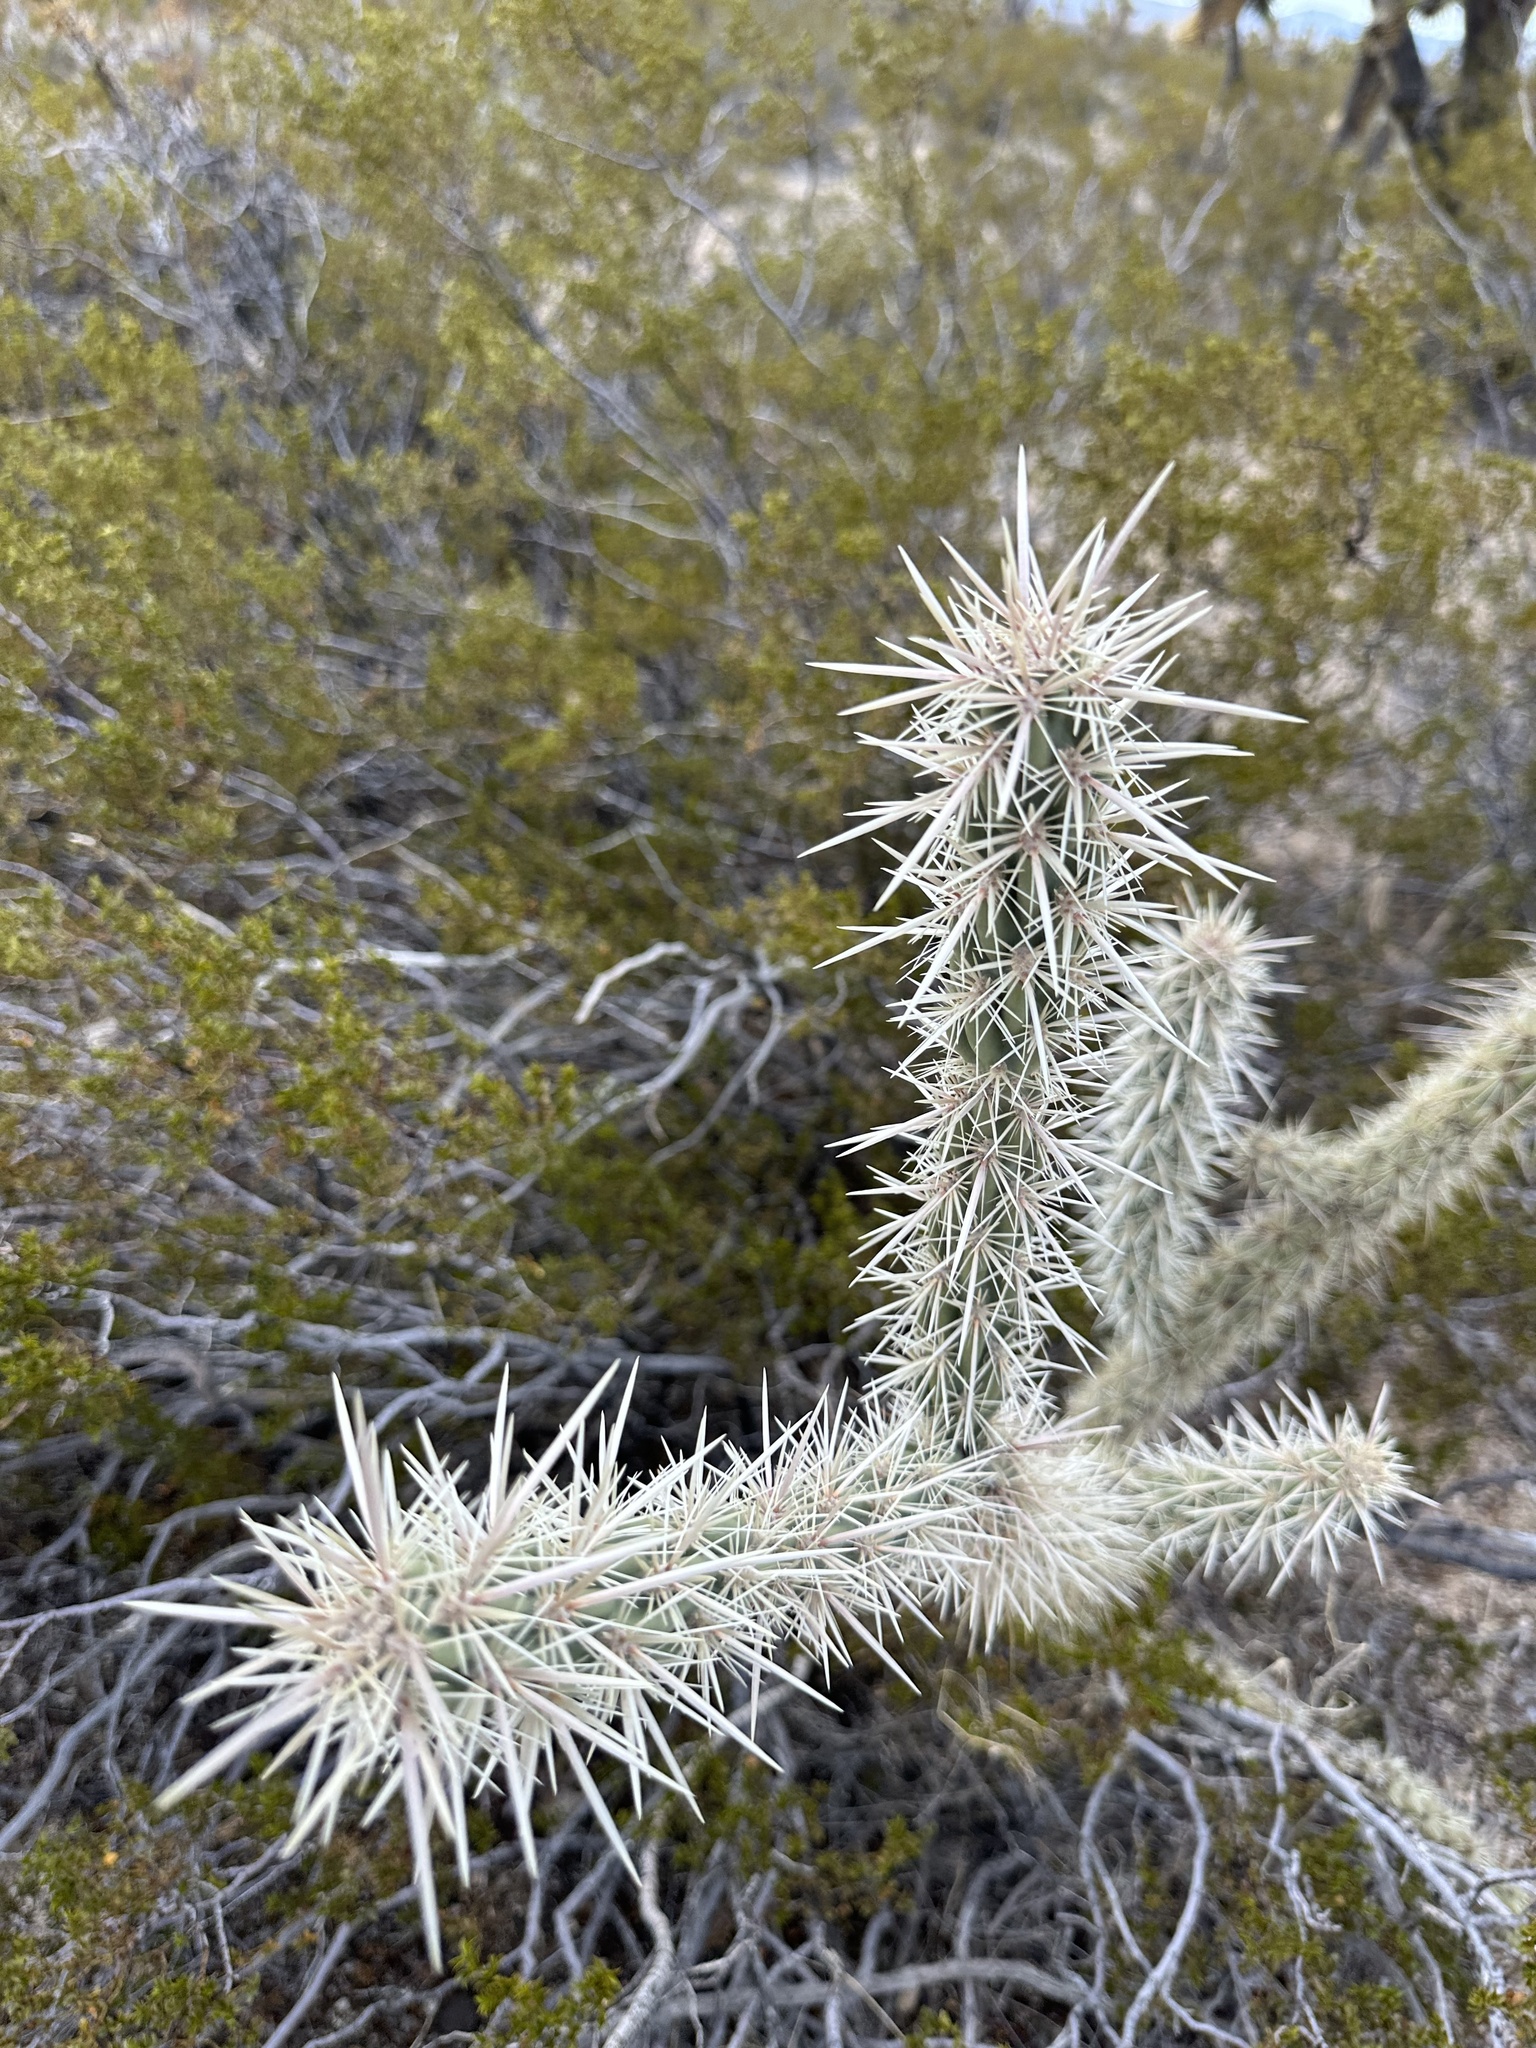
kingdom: Plantae
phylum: Tracheophyta
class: Magnoliopsida
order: Caryophyllales
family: Cactaceae
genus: Cylindropuntia
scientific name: Cylindropuntia acanthocarpa
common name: Buckhorn cholla
